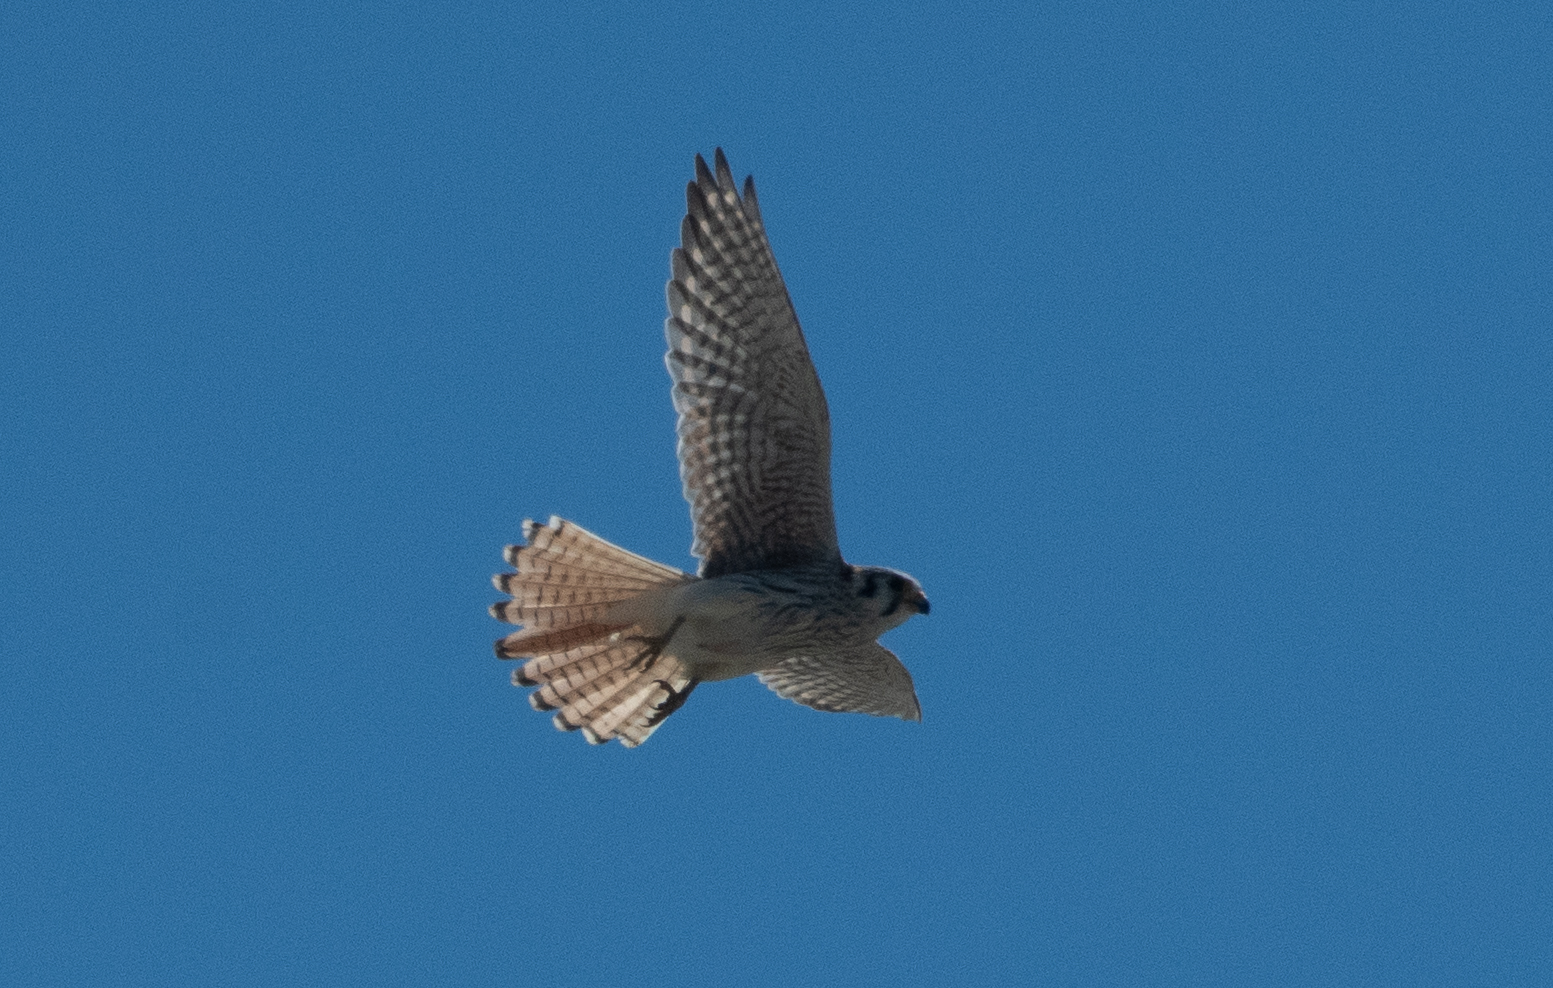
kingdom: Animalia
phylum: Chordata
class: Aves
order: Falconiformes
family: Falconidae
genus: Falco
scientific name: Falco sparverius
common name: American kestrel
